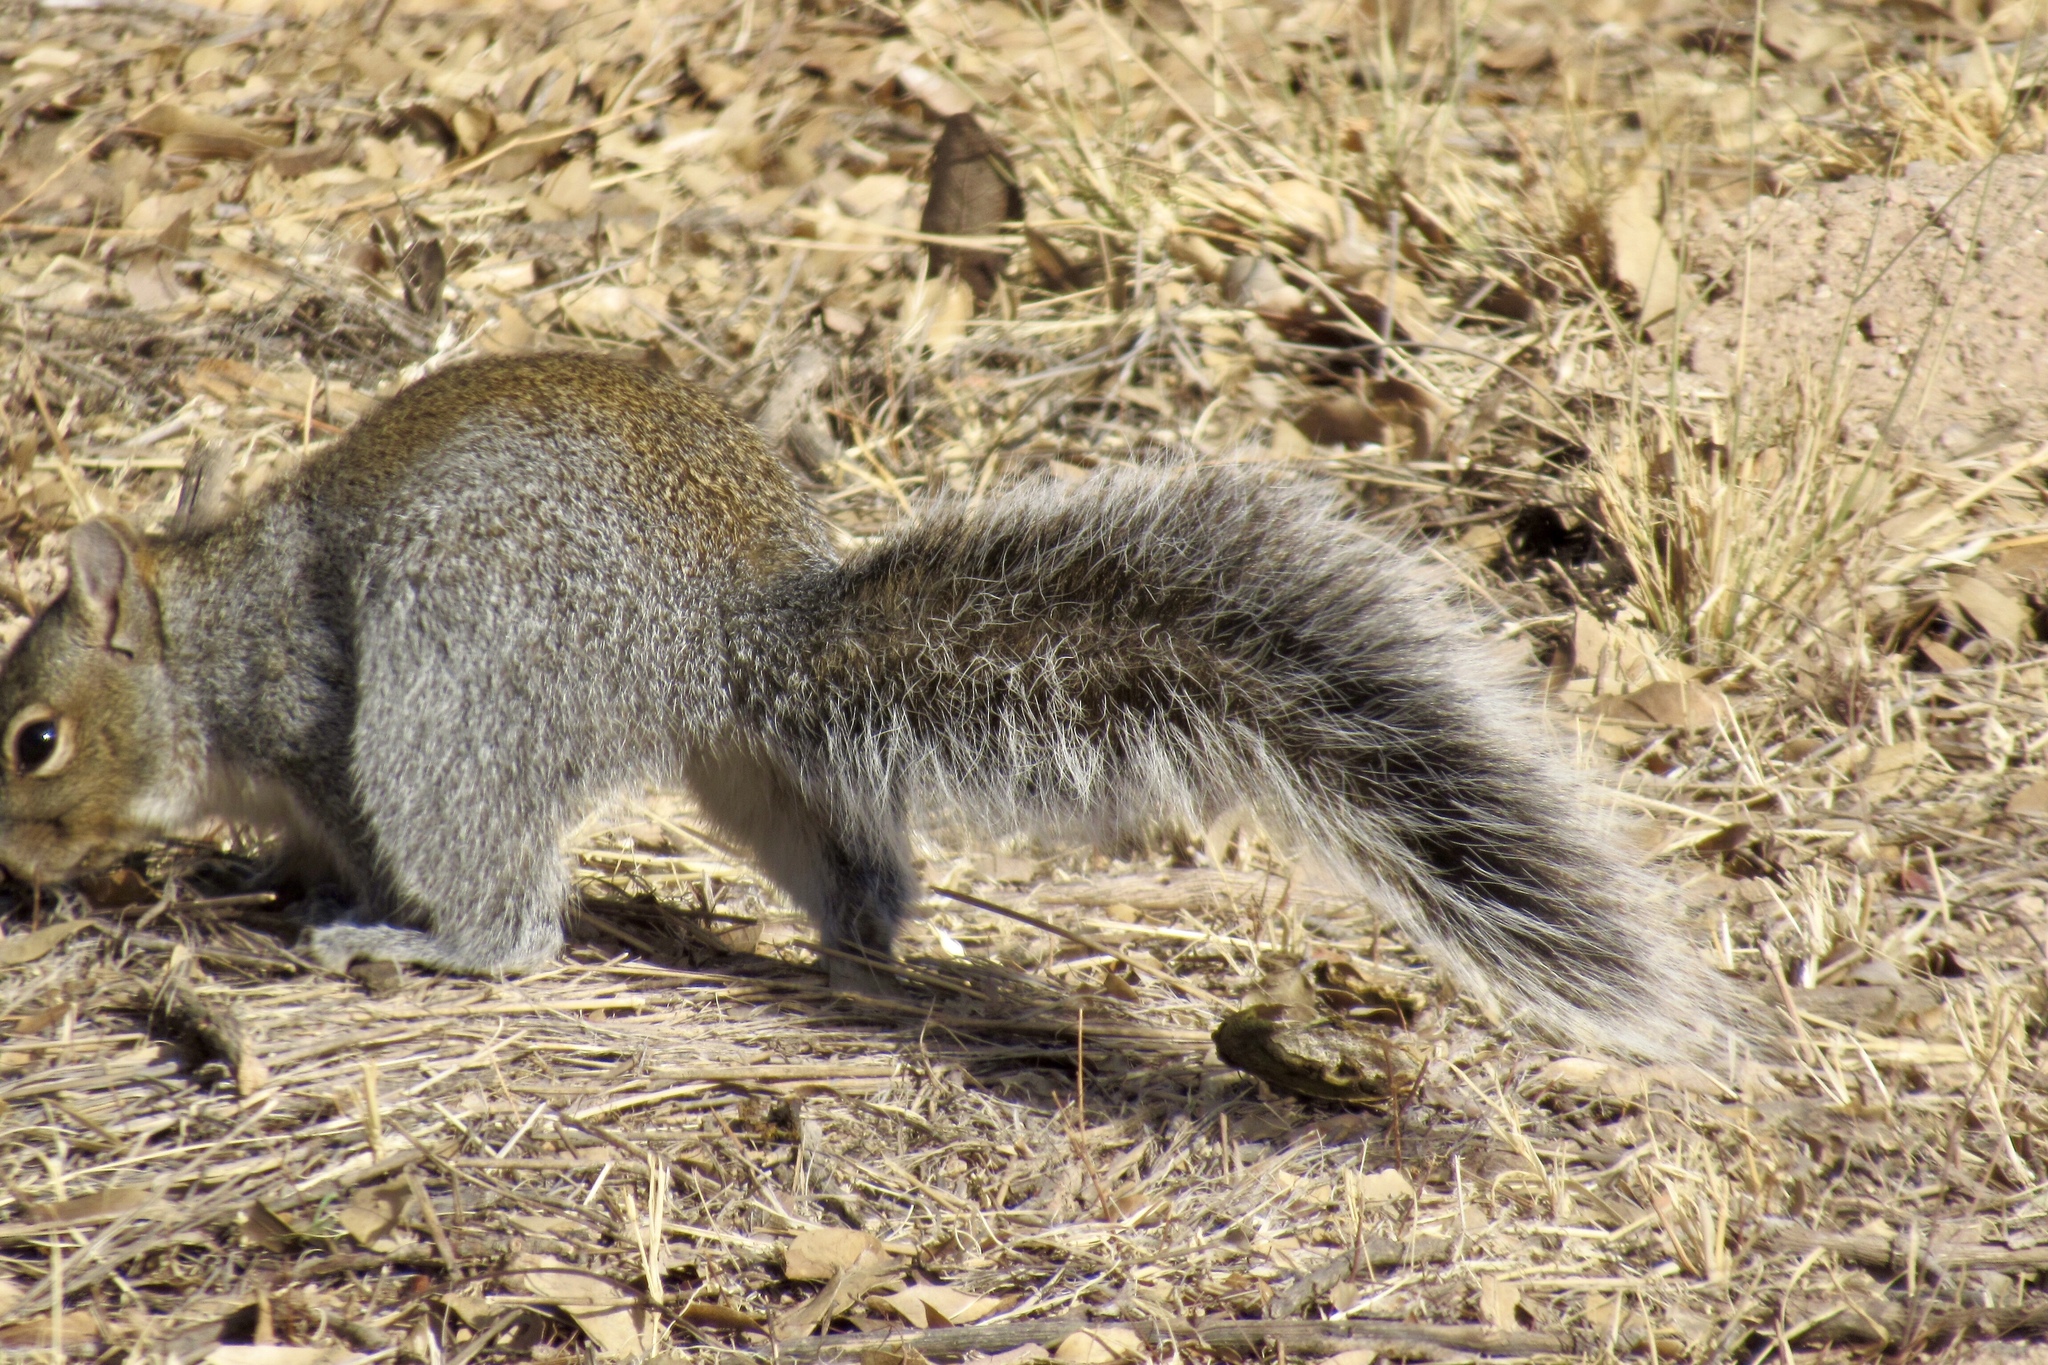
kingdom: Animalia
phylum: Chordata
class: Mammalia
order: Rodentia
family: Sciuridae
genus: Sciurus
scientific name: Sciurus arizonensis
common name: Arizona gray squirrel
